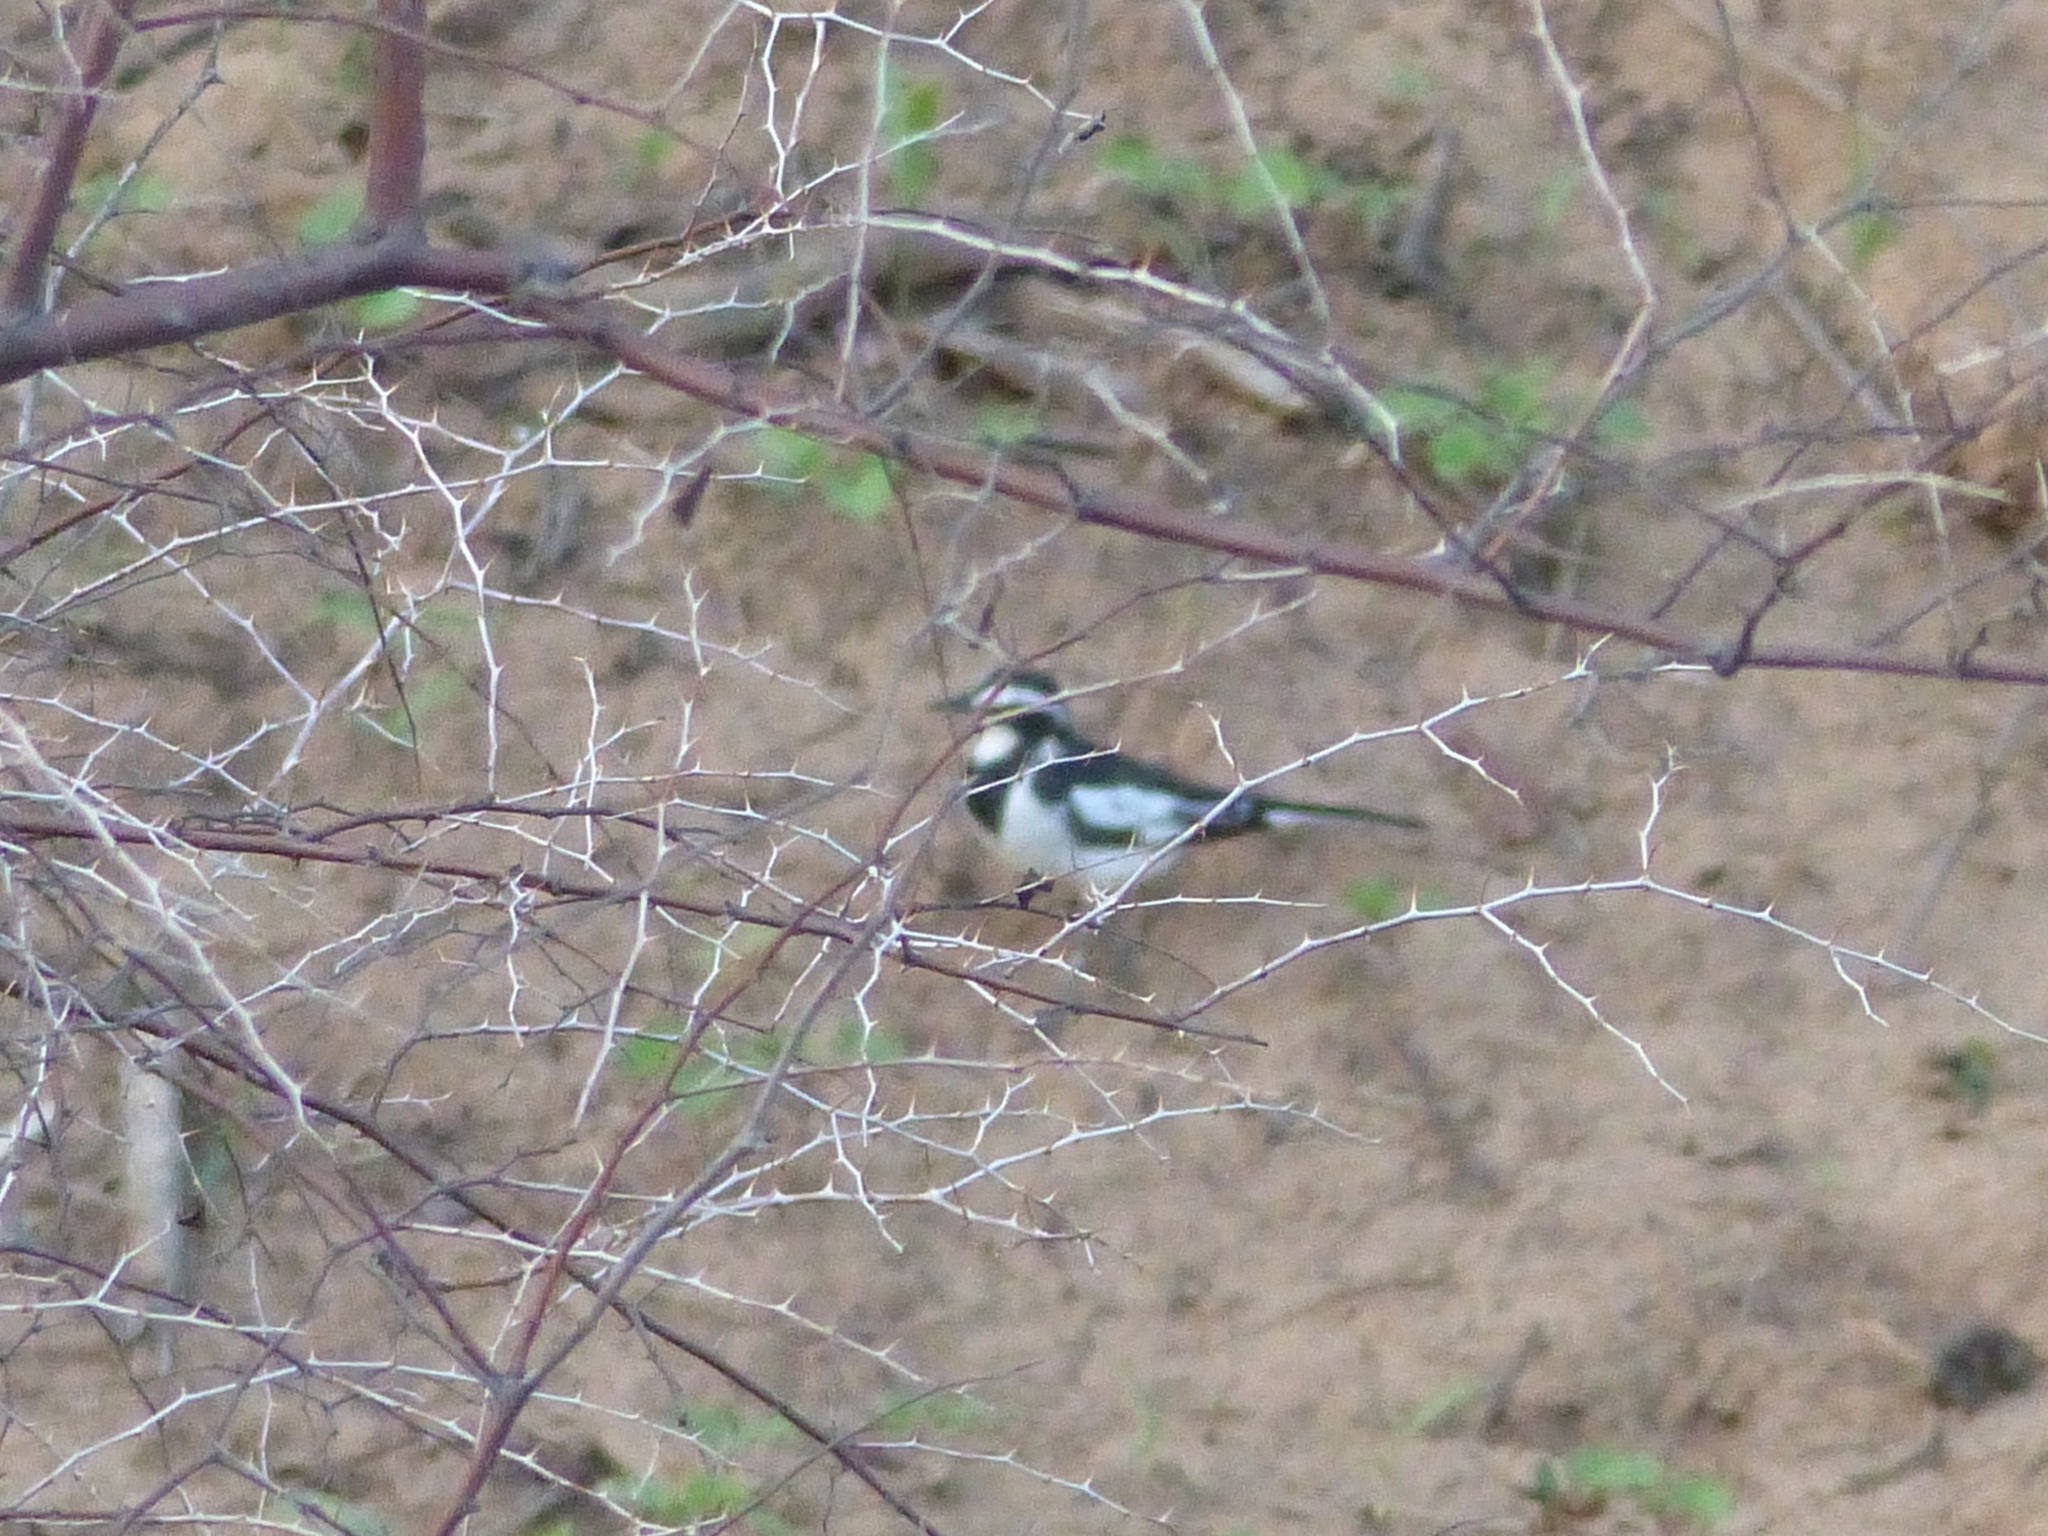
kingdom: Animalia
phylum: Chordata
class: Aves
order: Passeriformes
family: Motacillidae
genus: Motacilla
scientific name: Motacilla aguimp
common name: African pied wagtail
